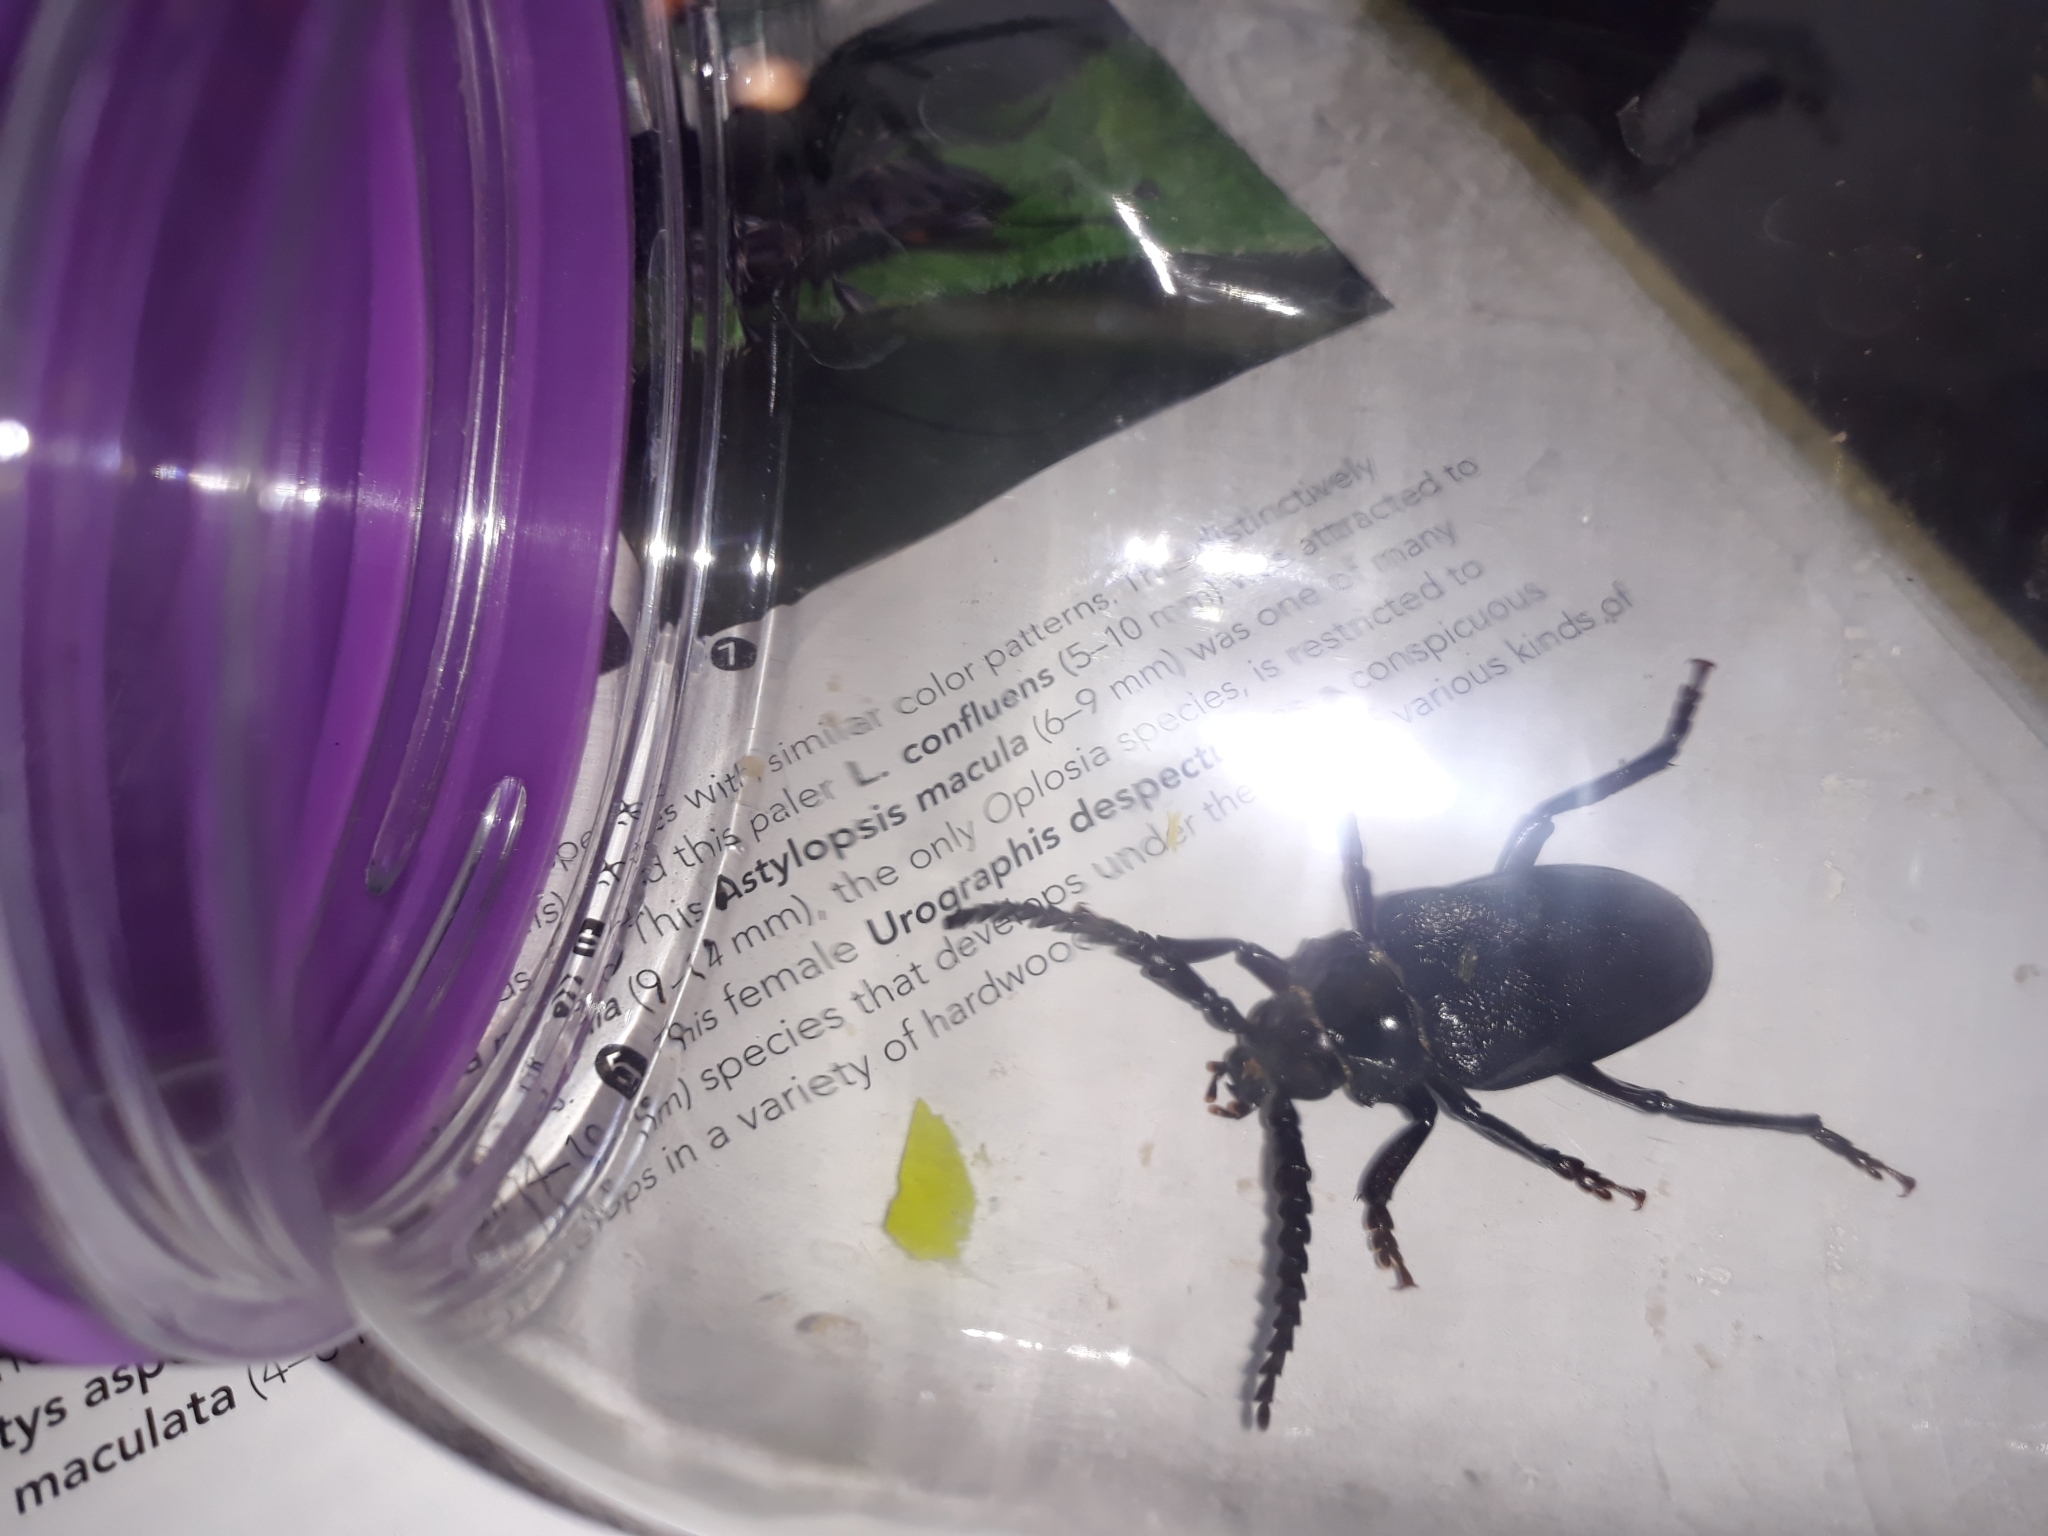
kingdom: Animalia
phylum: Arthropoda
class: Insecta
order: Coleoptera
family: Cerambycidae
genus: Prionus
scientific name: Prionus laticollis
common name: Broad necked prionus
